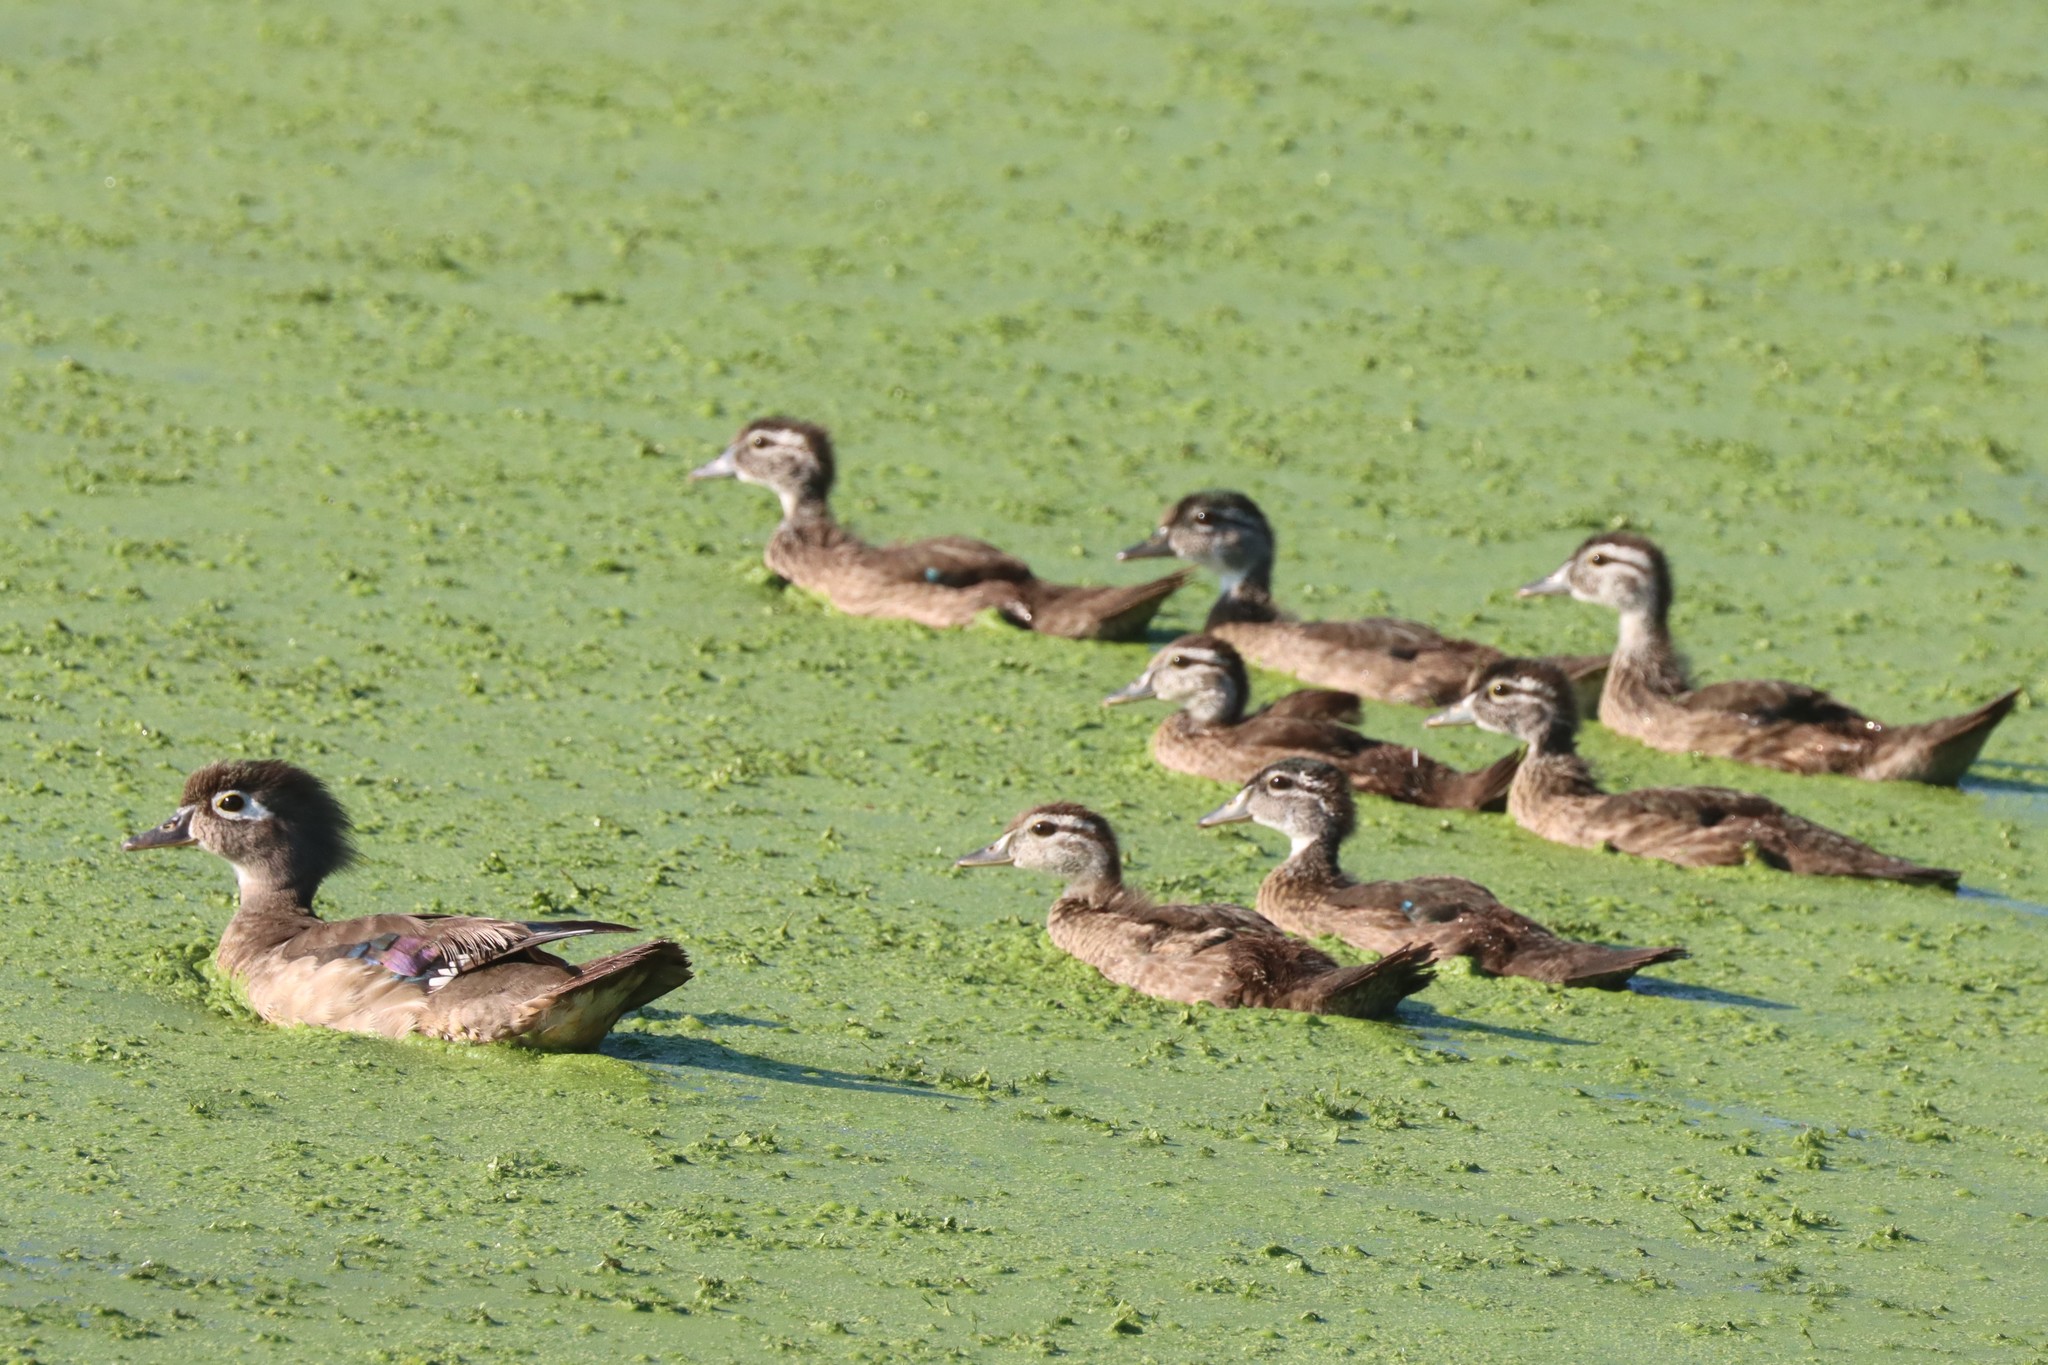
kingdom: Animalia
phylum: Chordata
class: Aves
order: Anseriformes
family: Anatidae
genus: Aix
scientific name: Aix sponsa
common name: Wood duck
